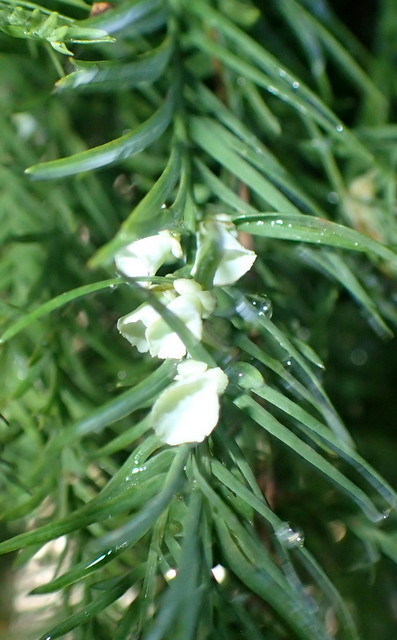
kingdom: Animalia
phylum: Arthropoda
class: Insecta
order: Diptera
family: Cecidomyiidae
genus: Taxodiomyia
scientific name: Taxodiomyia cupressi
